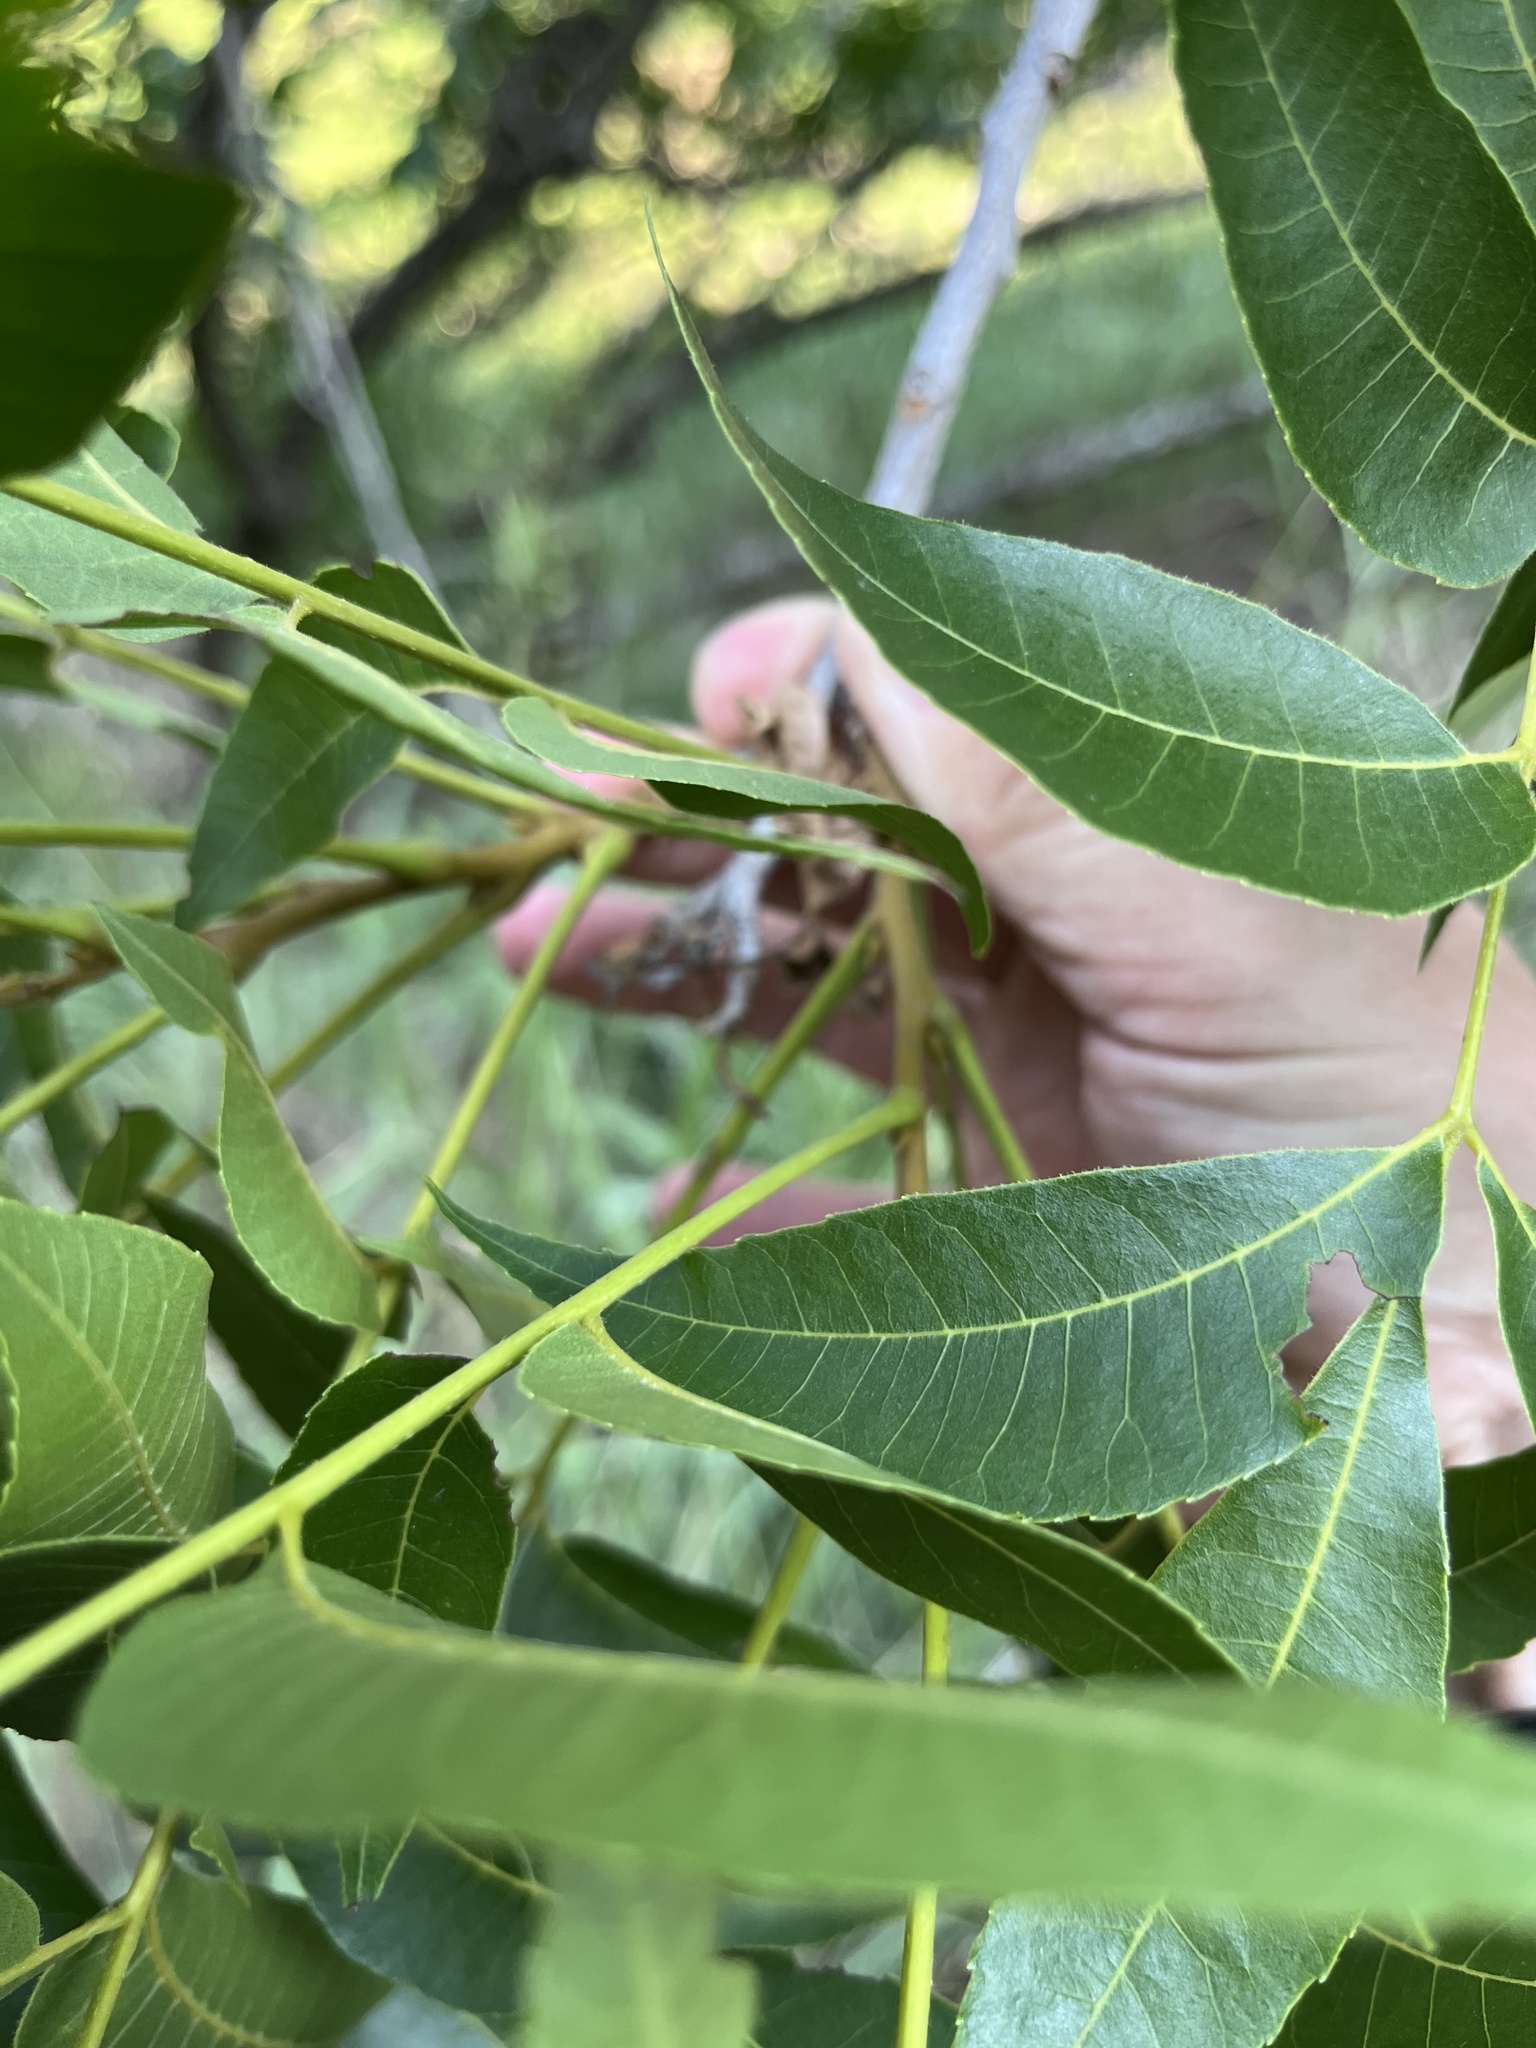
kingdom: Plantae
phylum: Tracheophyta
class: Magnoliopsida
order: Fagales
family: Juglandaceae
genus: Carya
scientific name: Carya illinoinensis
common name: Pecan
